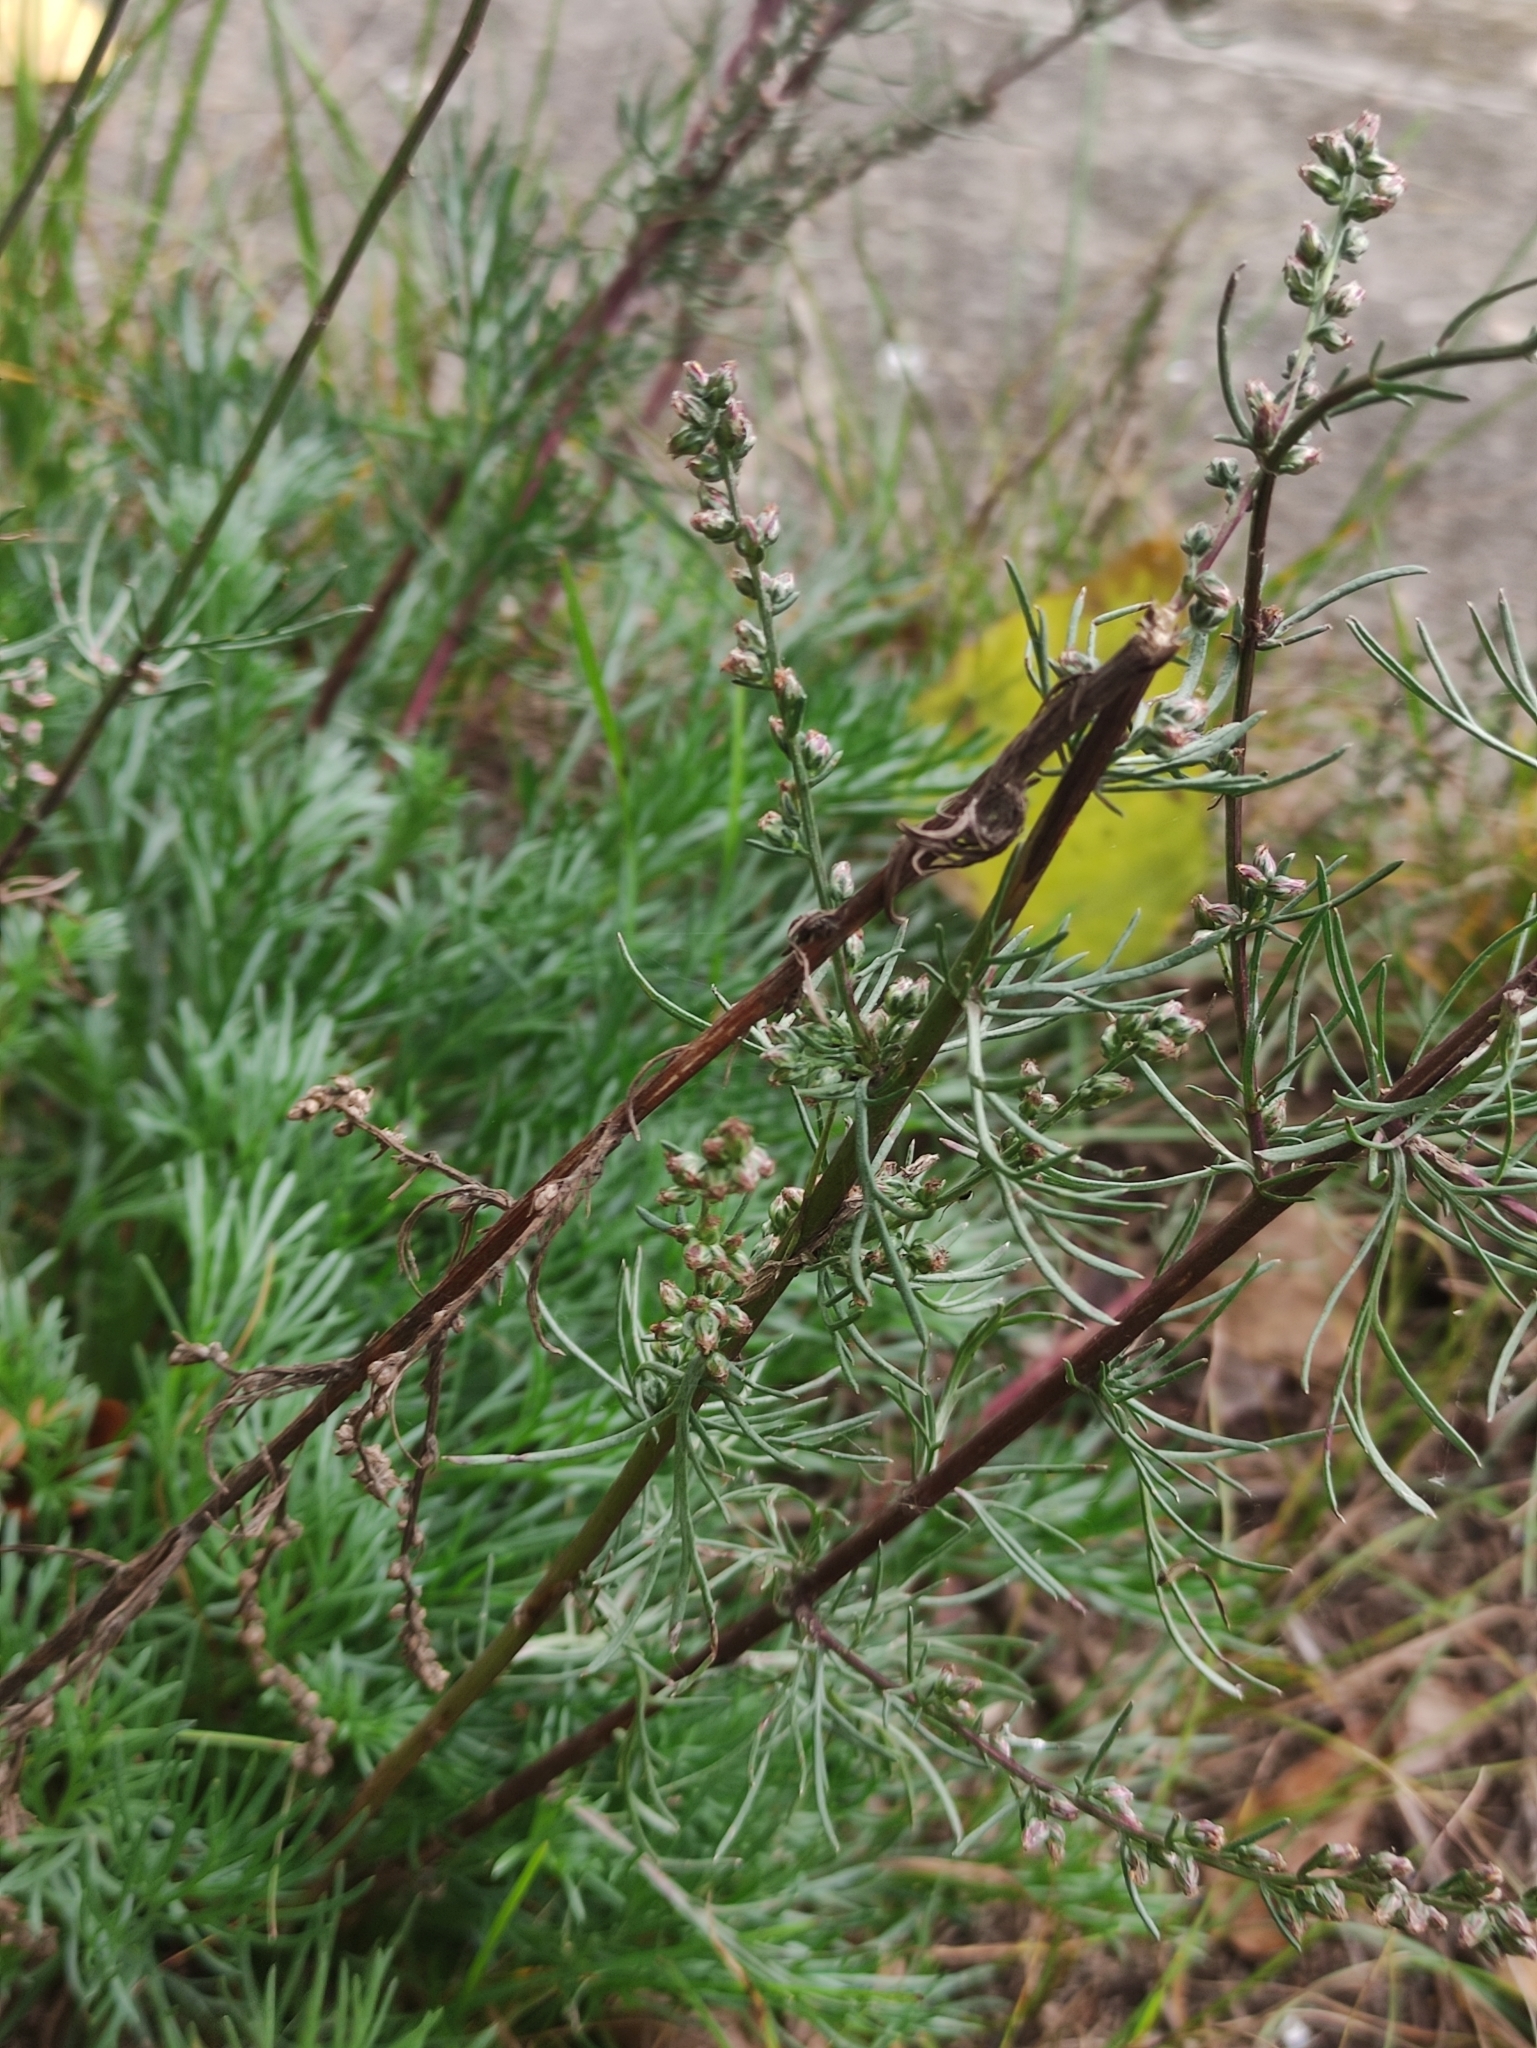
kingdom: Plantae
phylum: Tracheophyta
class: Magnoliopsida
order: Asterales
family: Asteraceae
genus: Artemisia
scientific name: Artemisia campestris
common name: Field wormwood
